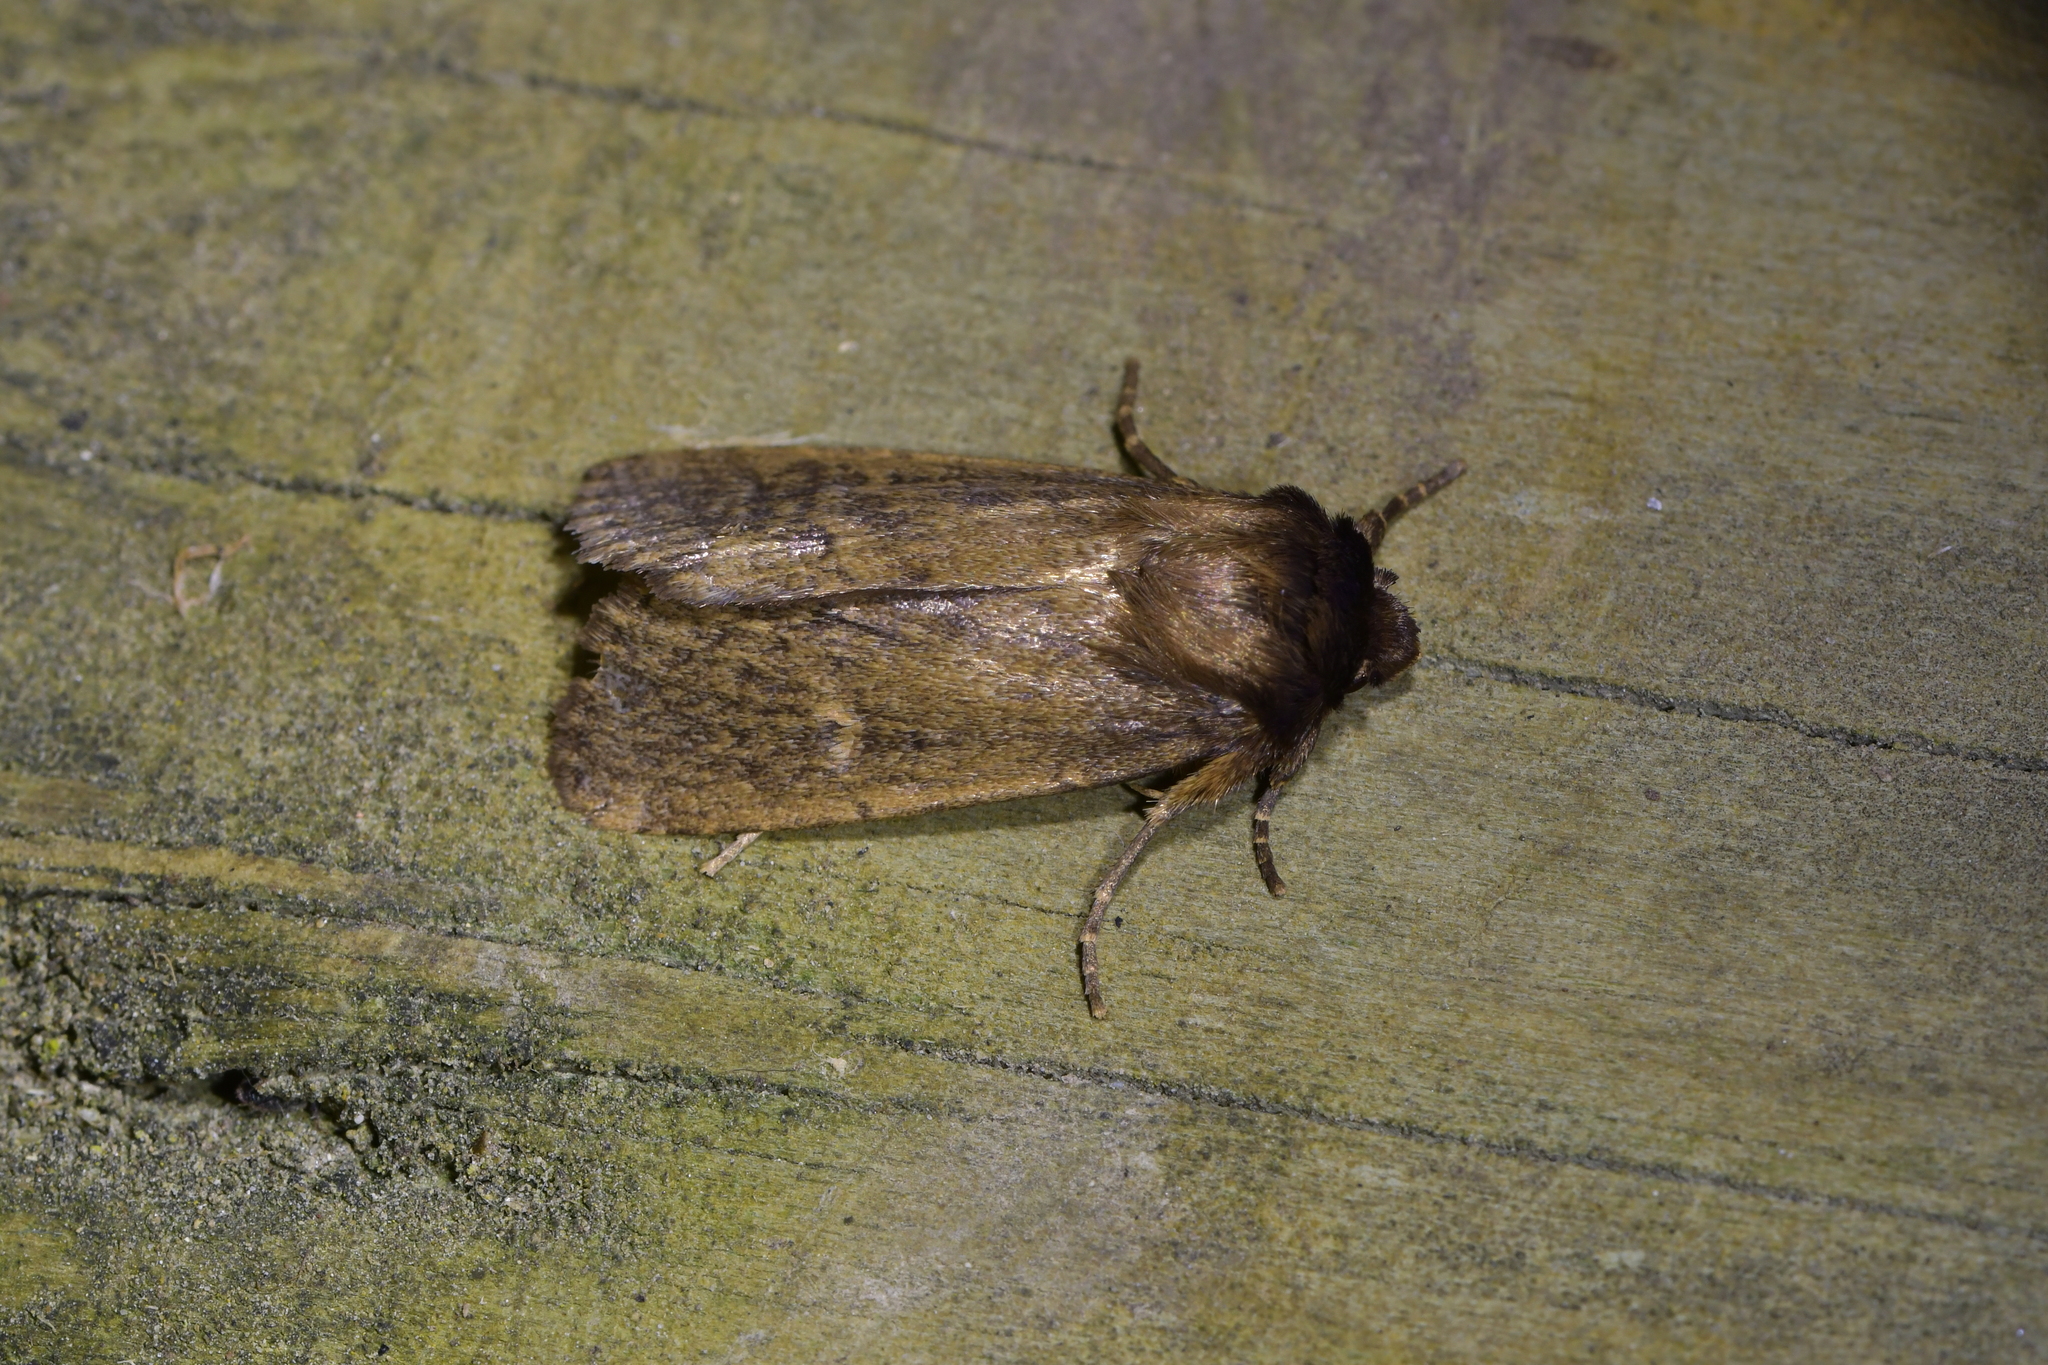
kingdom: Animalia
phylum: Arthropoda
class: Insecta
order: Lepidoptera
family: Noctuidae
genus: Bityla
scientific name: Bityla defigurata
